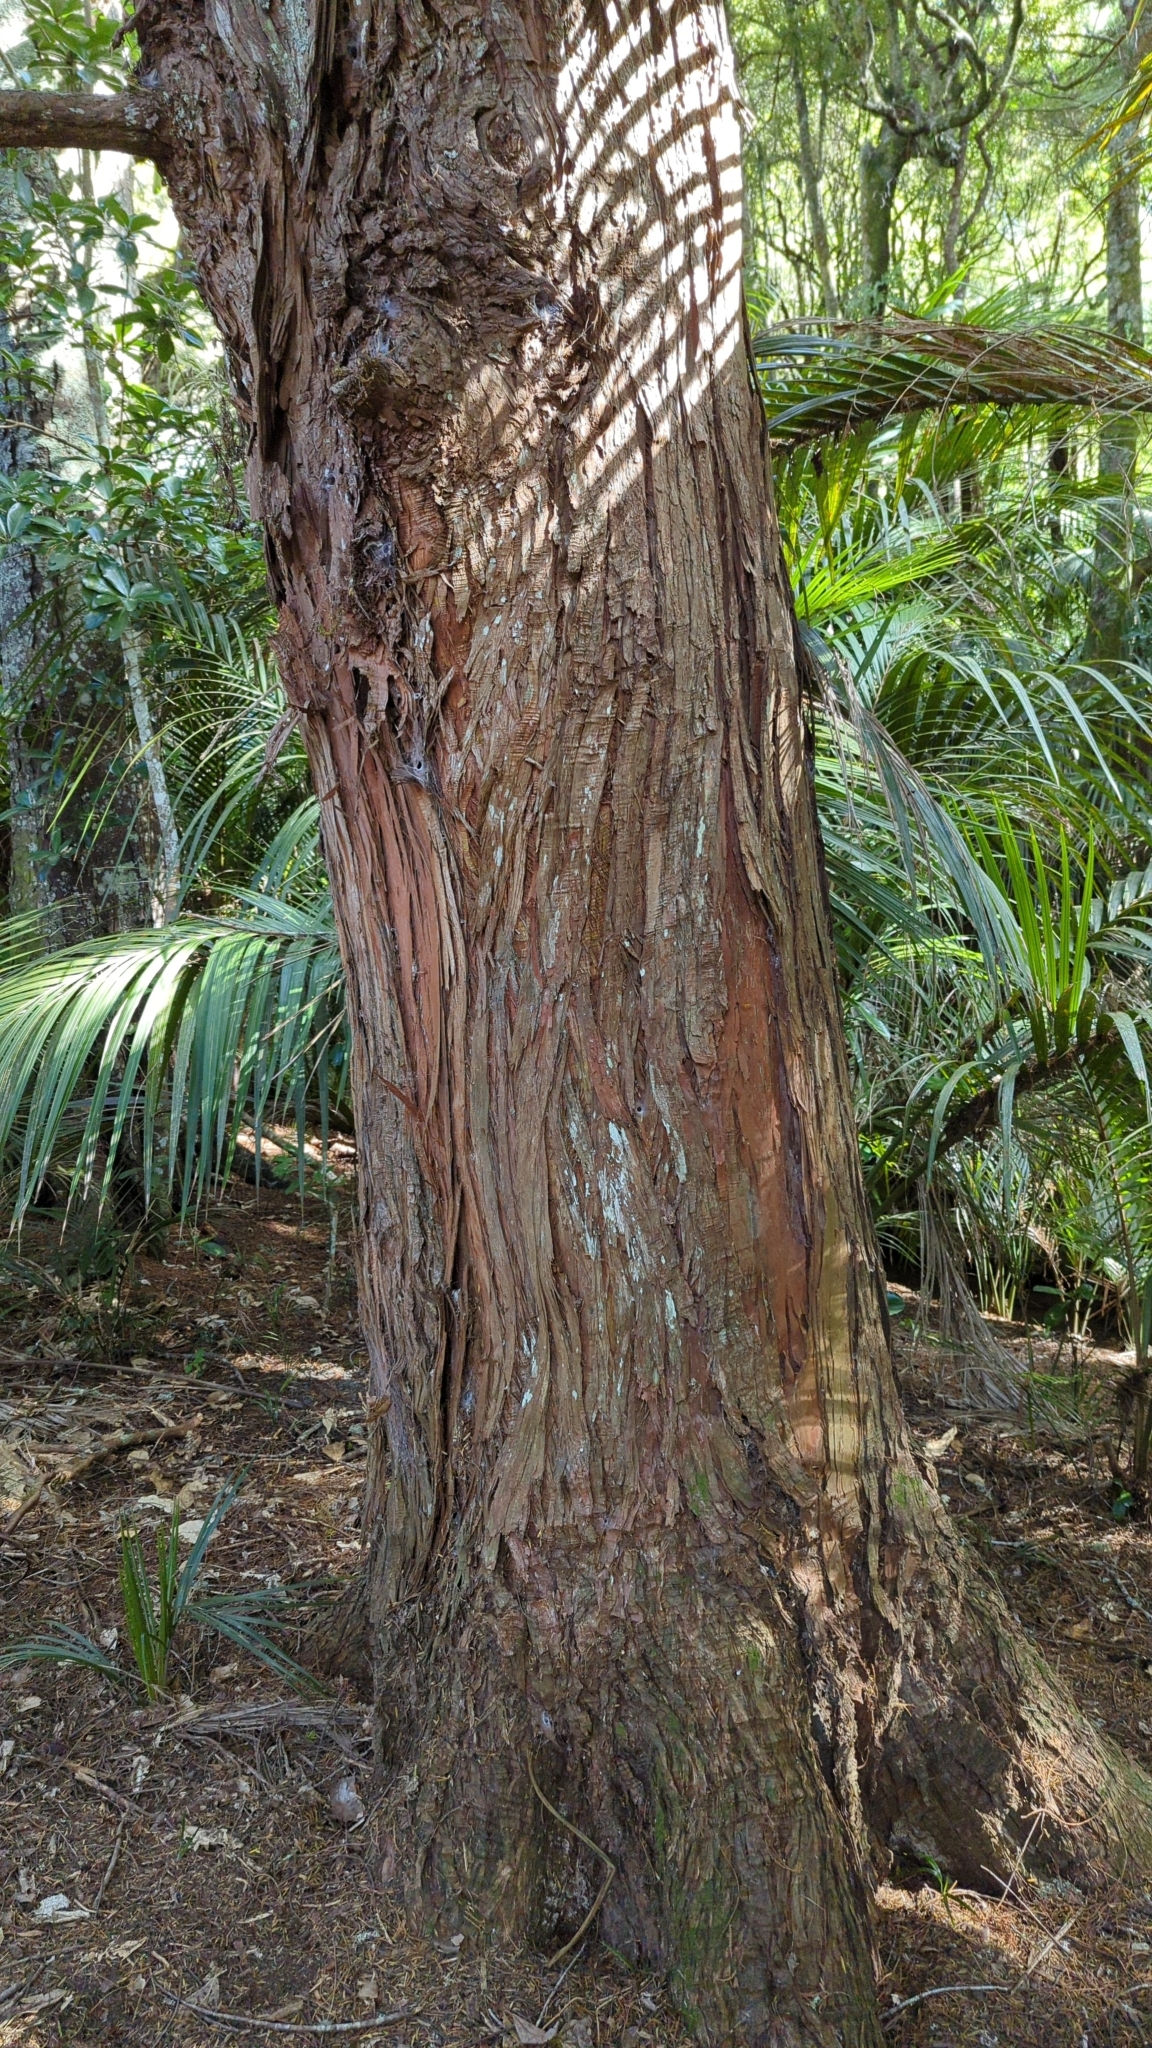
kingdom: Plantae
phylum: Tracheophyta
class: Pinopsida
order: Pinales
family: Podocarpaceae
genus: Podocarpus
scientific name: Podocarpus totara
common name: Totara
